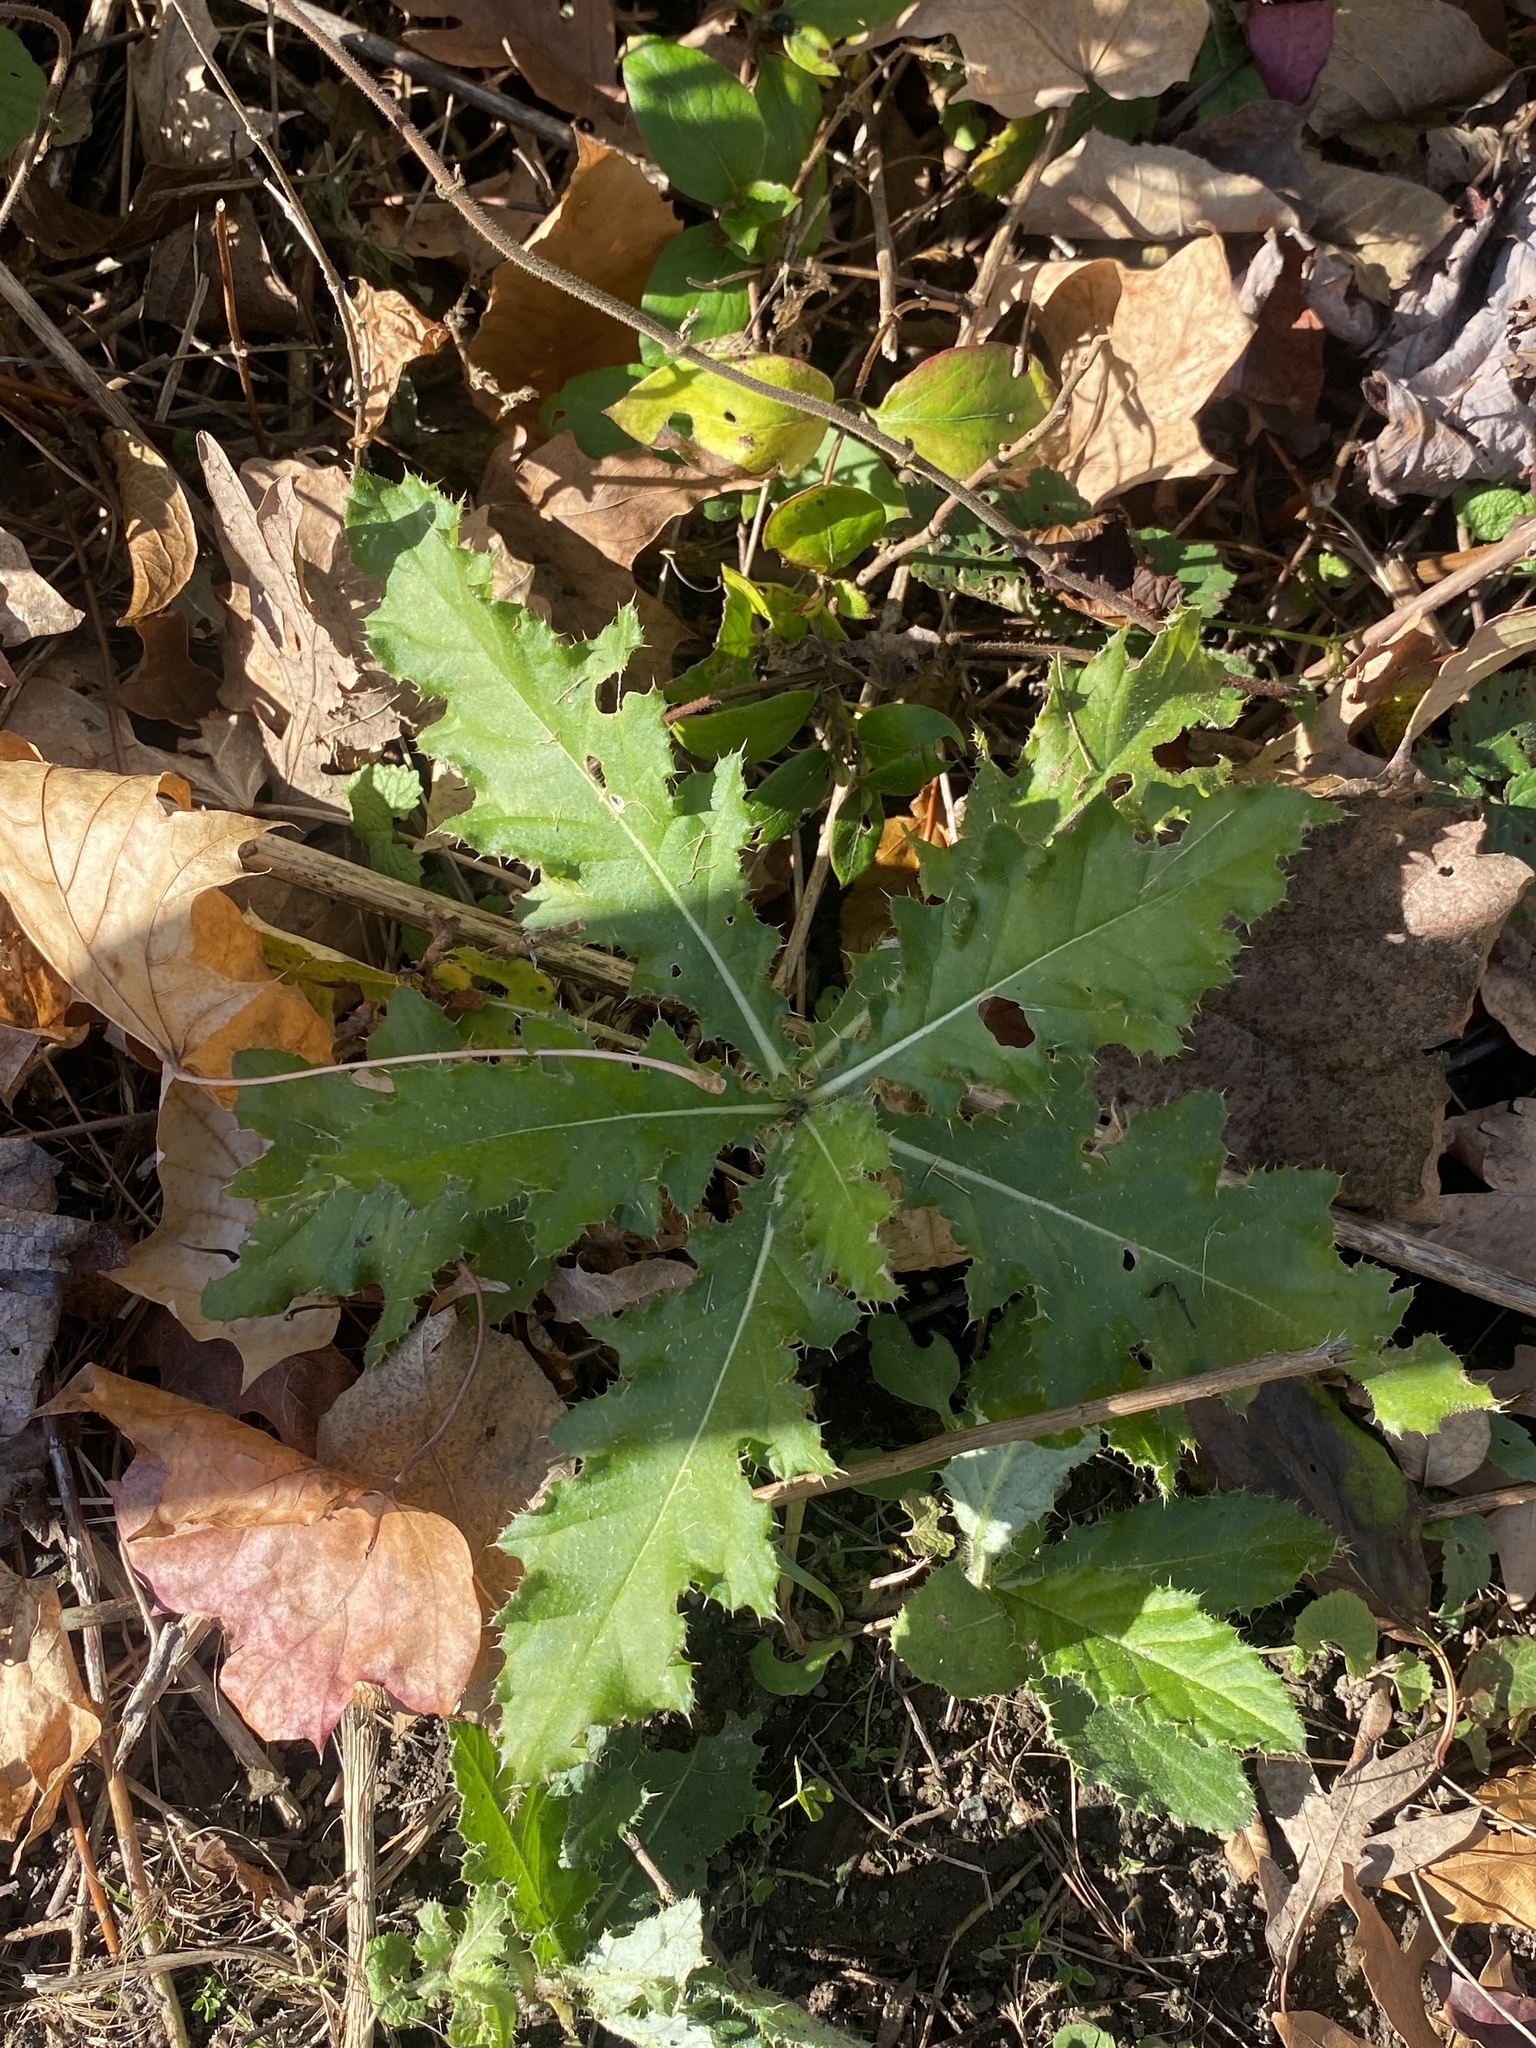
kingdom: Plantae
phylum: Tracheophyta
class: Magnoliopsida
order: Asterales
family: Asteraceae
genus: Cirsium
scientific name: Cirsium arvense
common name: Creeping thistle
